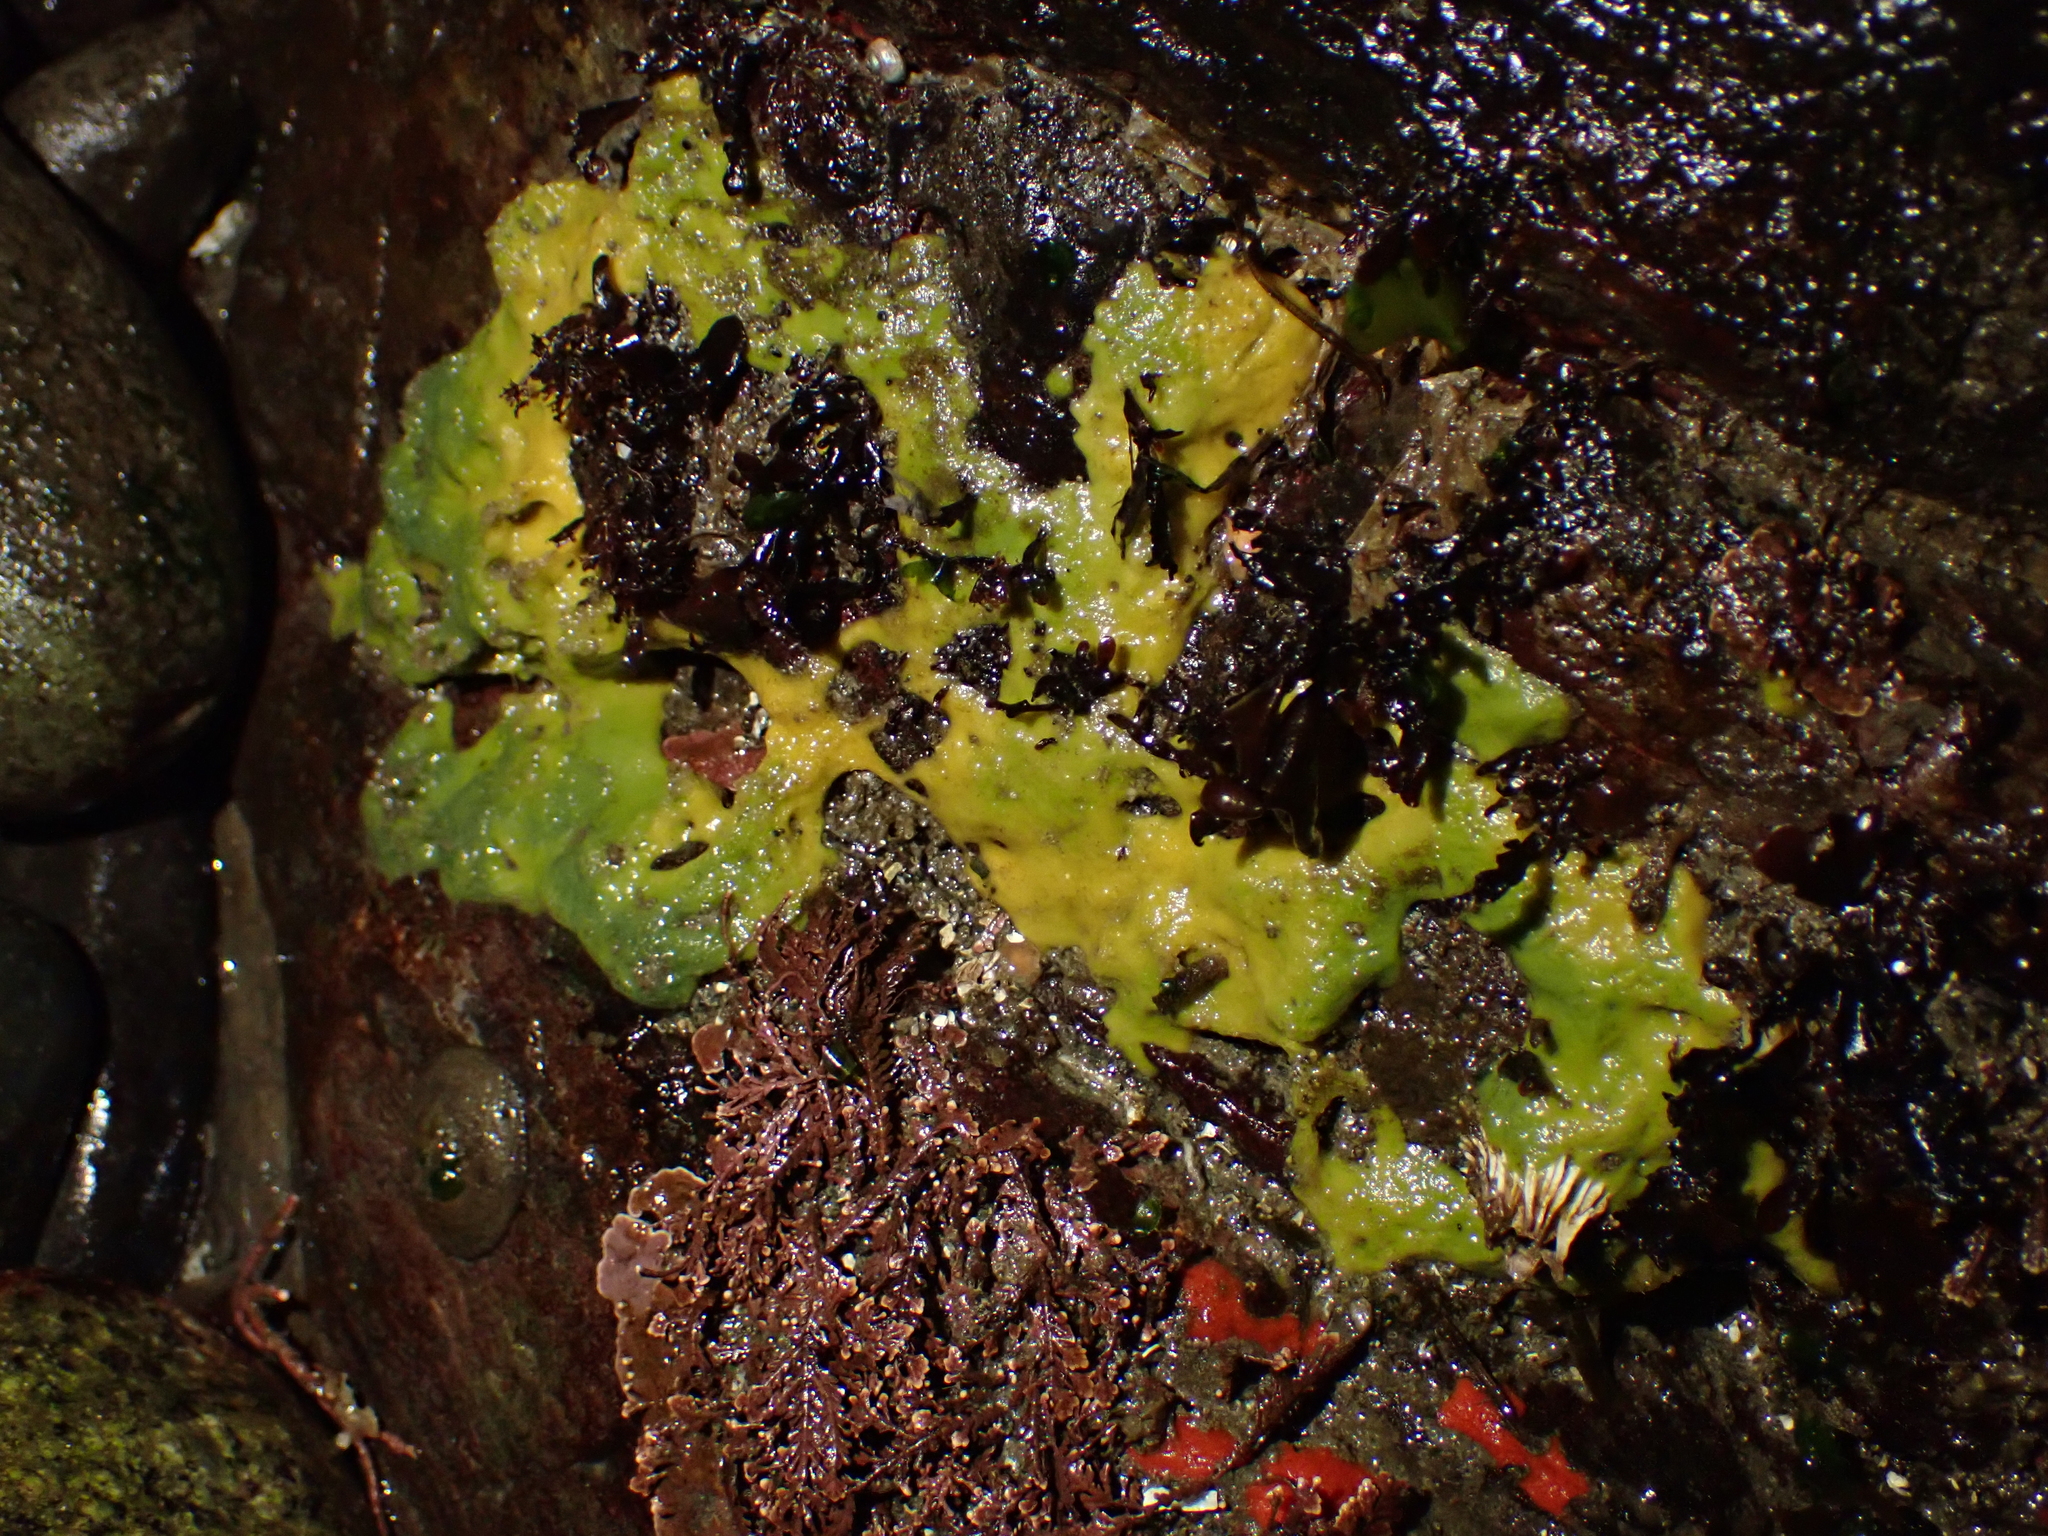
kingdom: Animalia
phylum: Porifera
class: Demospongiae
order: Suberitida
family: Halichondriidae
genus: Halichondria
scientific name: Halichondria panicea
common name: Breadcrumb sponge
